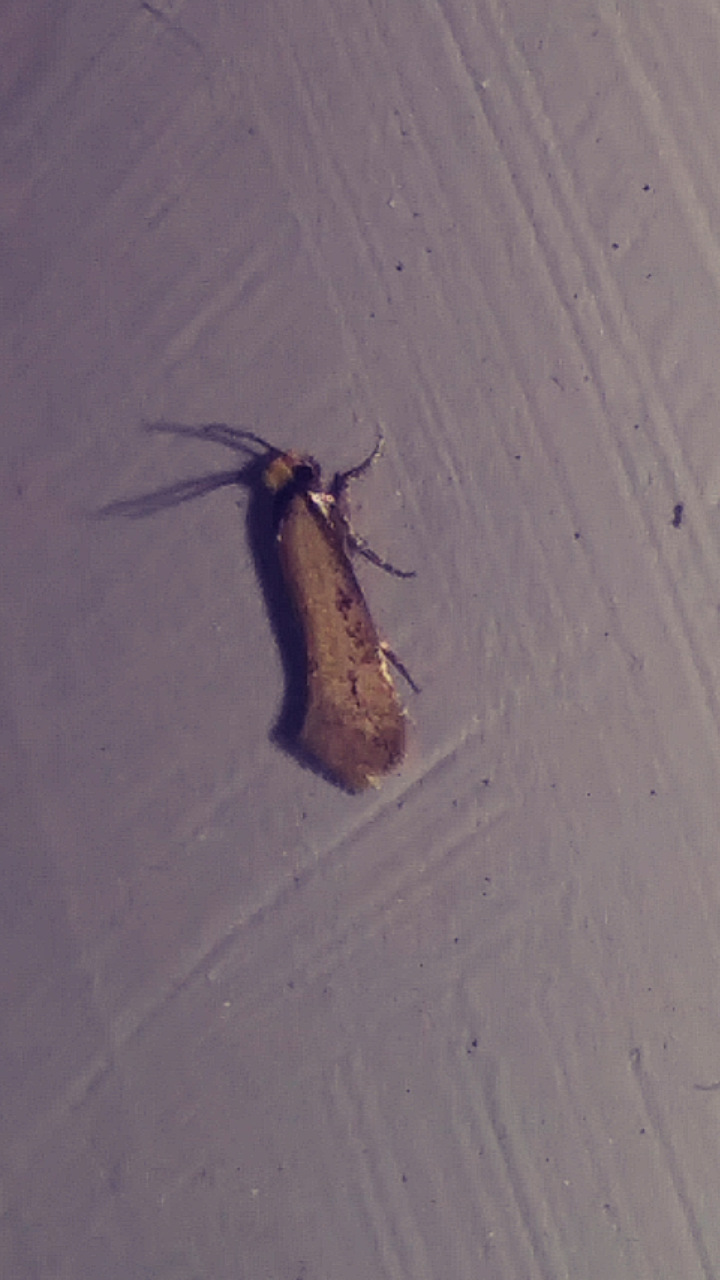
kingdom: Animalia
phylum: Arthropoda
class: Insecta
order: Lepidoptera
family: Meessiidae
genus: Homostinea
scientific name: Homostinea curviliniella
